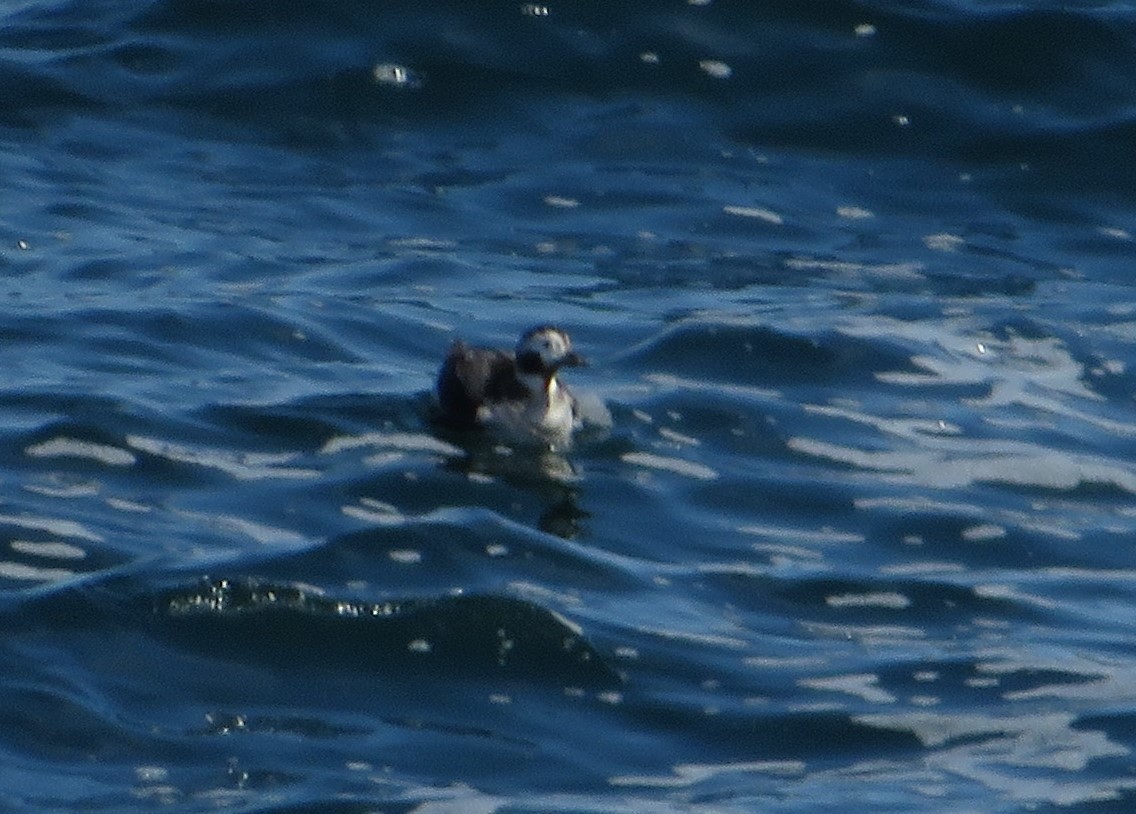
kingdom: Animalia
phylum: Chordata
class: Aves
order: Anseriformes
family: Anatidae
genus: Clangula
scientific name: Clangula hyemalis
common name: Long-tailed duck
